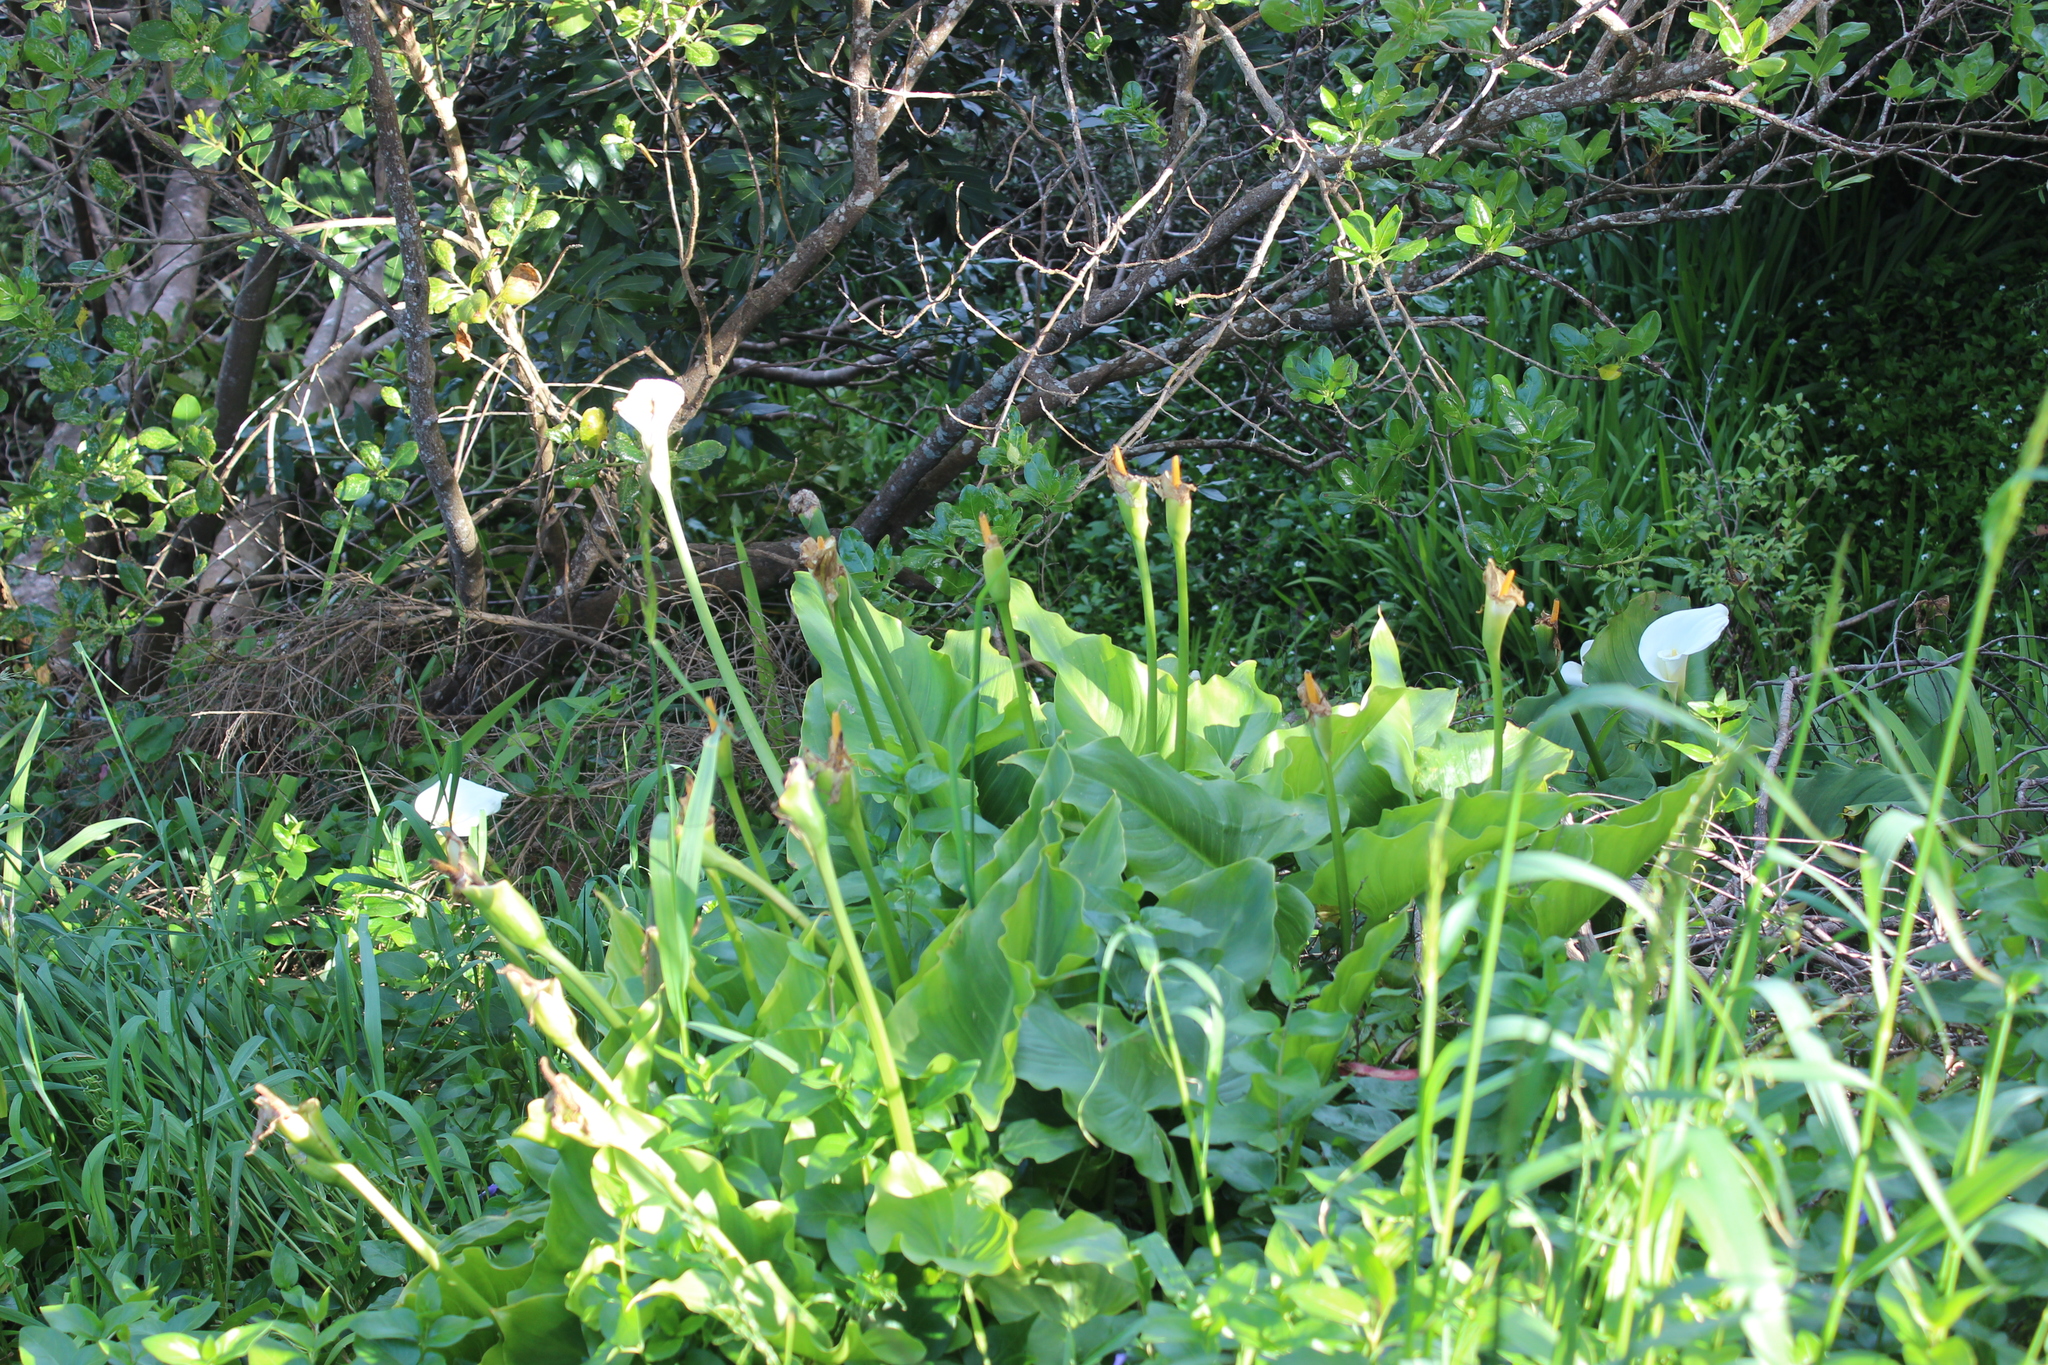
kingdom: Plantae
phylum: Tracheophyta
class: Liliopsida
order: Alismatales
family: Araceae
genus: Zantedeschia
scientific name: Zantedeschia aethiopica
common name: Altar-lily
